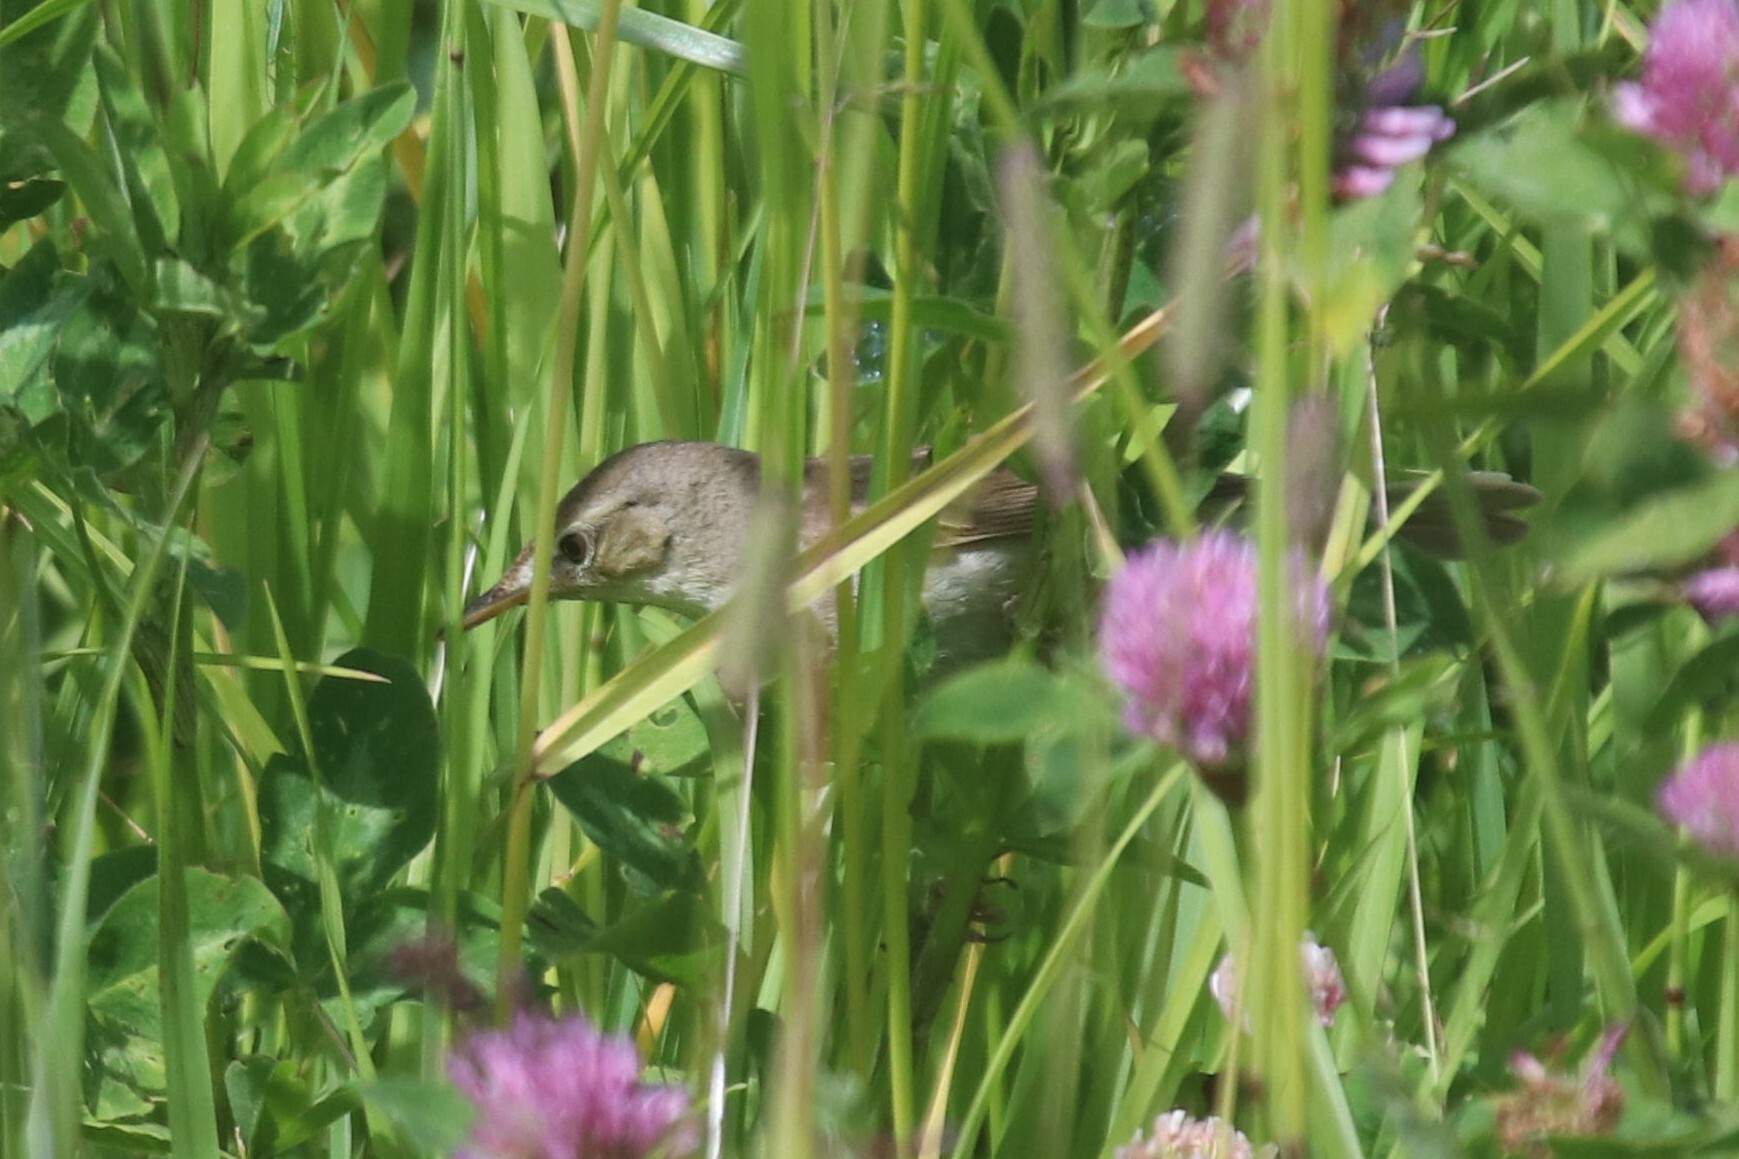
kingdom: Animalia
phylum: Chordata
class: Aves
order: Passeriformes
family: Acrocephalidae
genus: Acrocephalus
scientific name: Acrocephalus dumetorum
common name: Blyth's reed warbler
